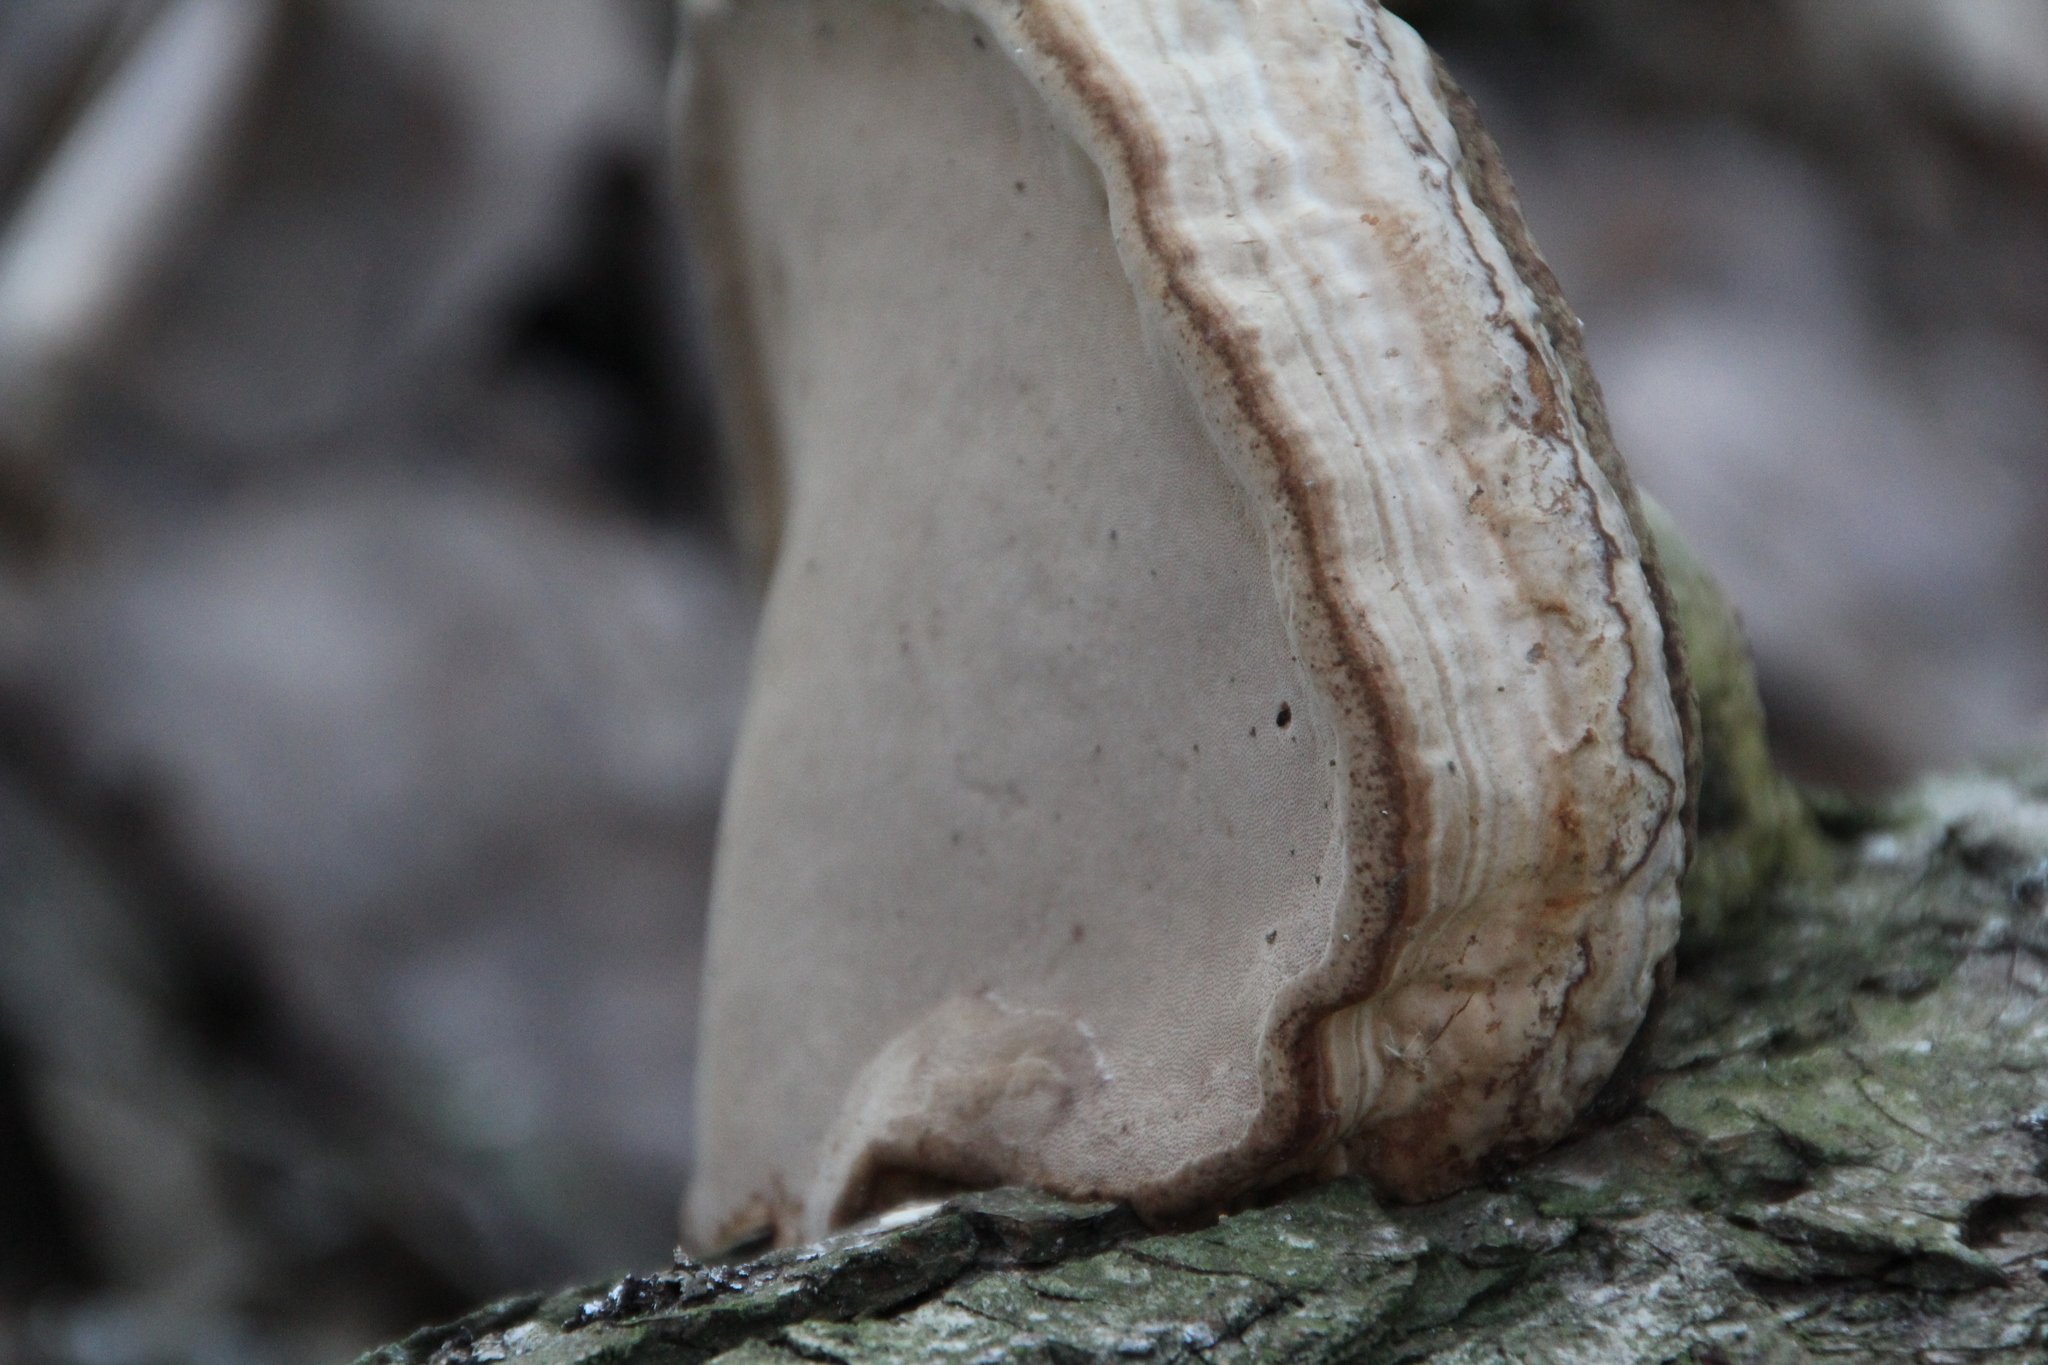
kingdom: Fungi
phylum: Basidiomycota
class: Agaricomycetes
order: Polyporales
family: Polyporaceae
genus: Fomes
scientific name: Fomes fomentarius
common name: Hoof fungus
